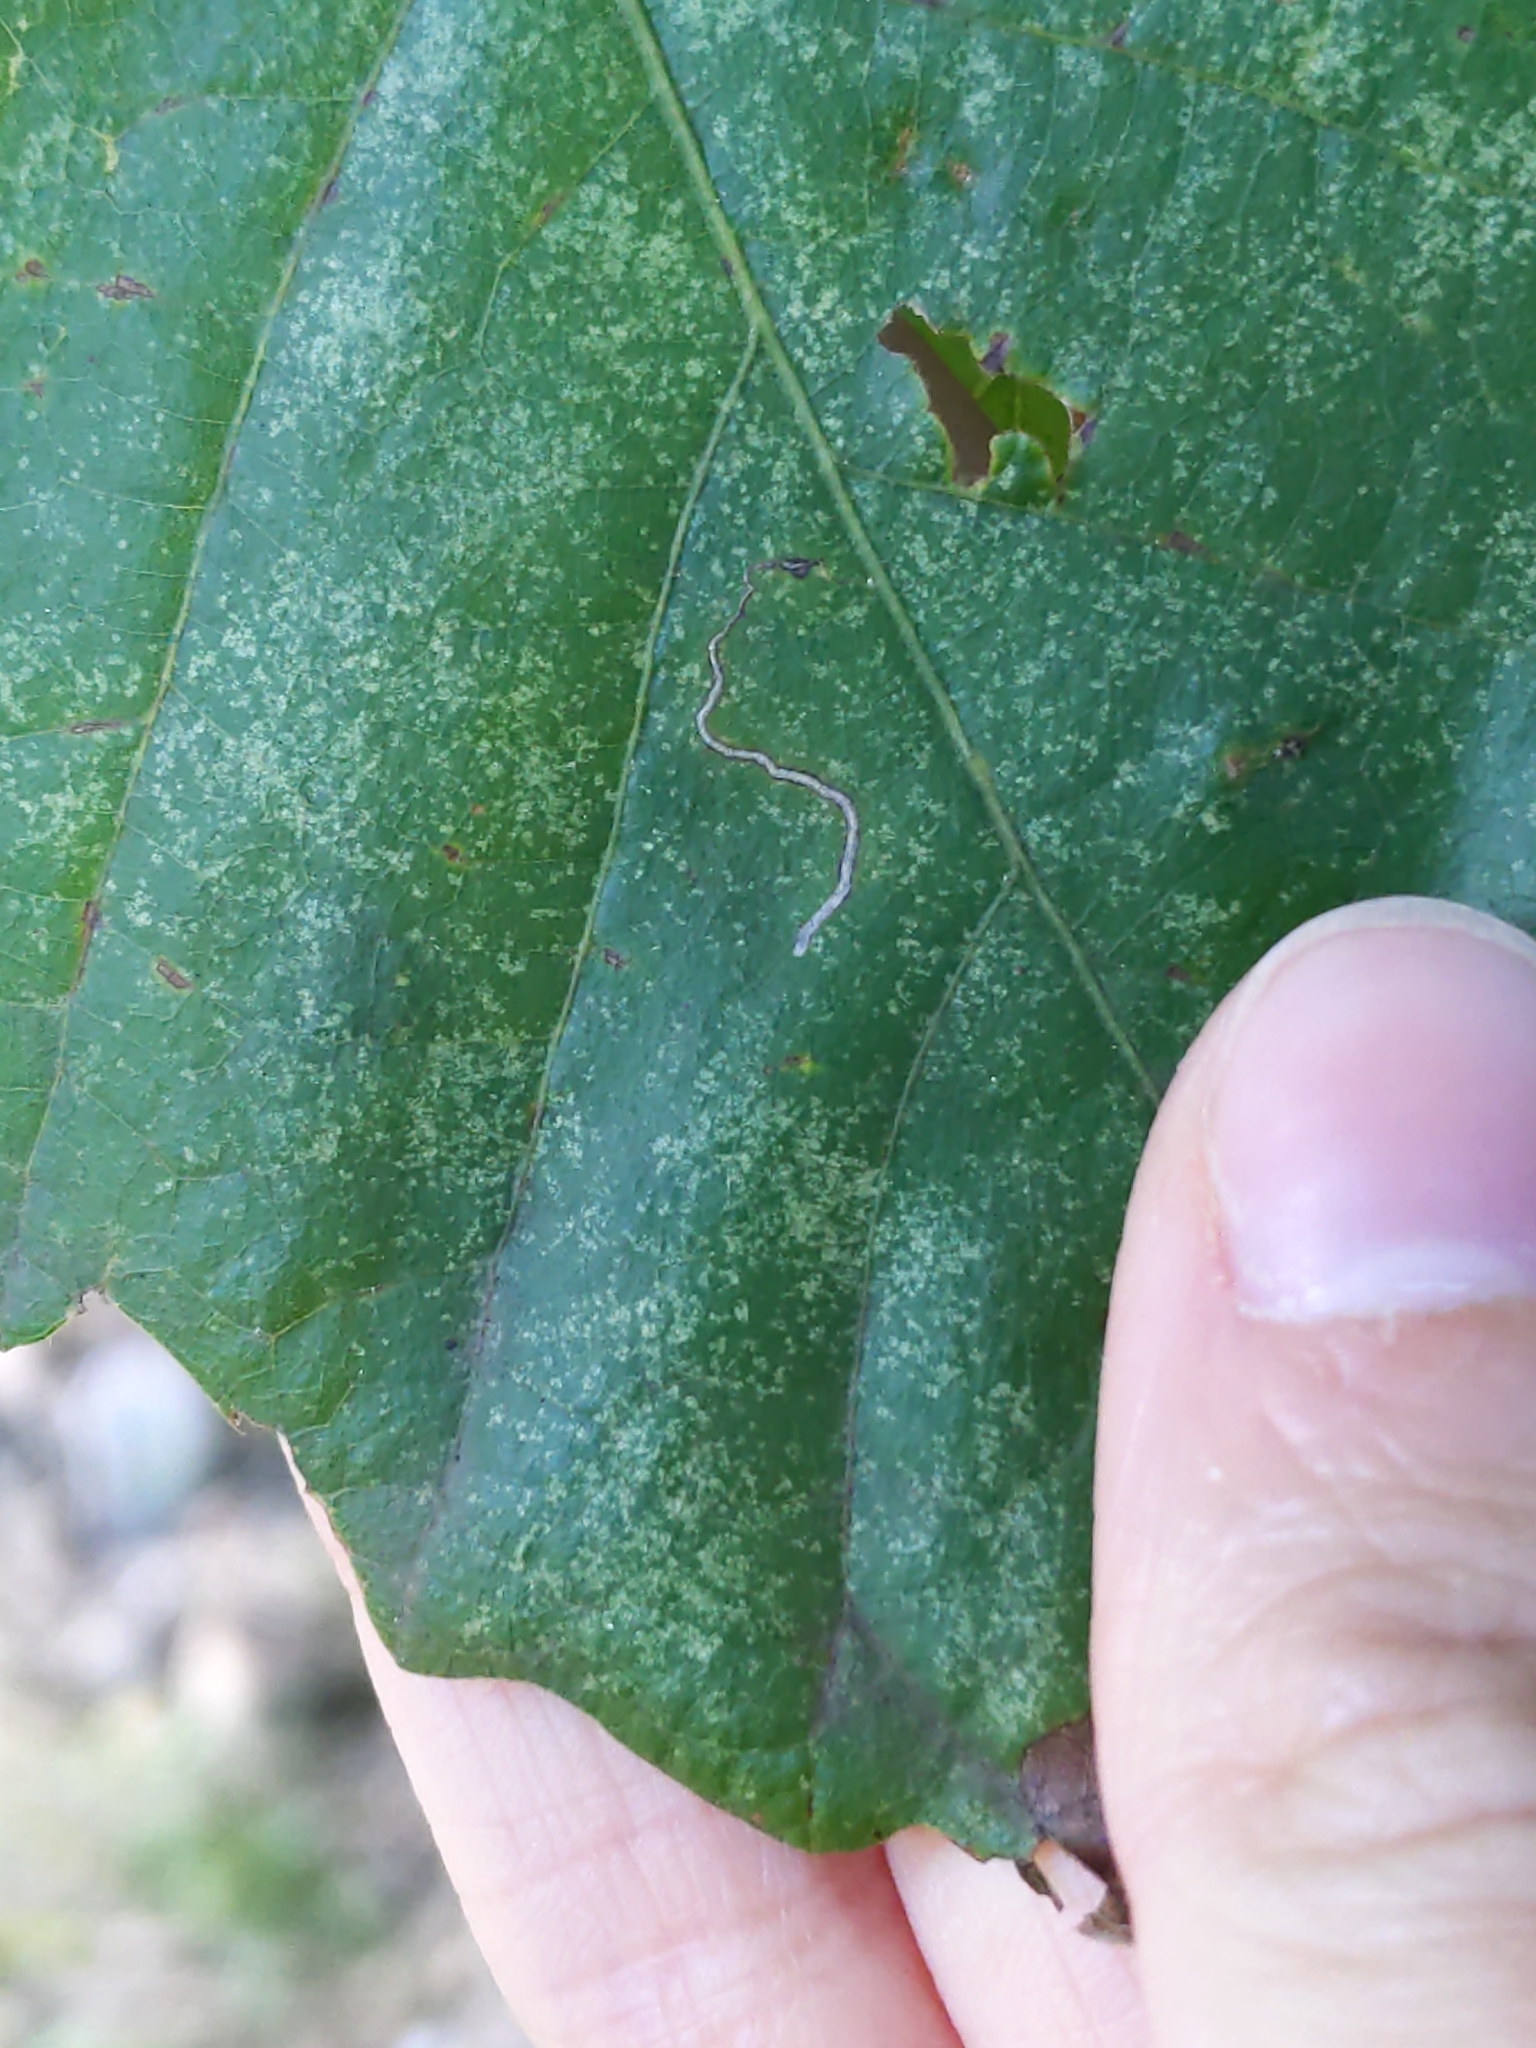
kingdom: Animalia
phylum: Arthropoda
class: Insecta
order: Lepidoptera
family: Nepticulidae
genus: Stigmella
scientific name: Stigmella
